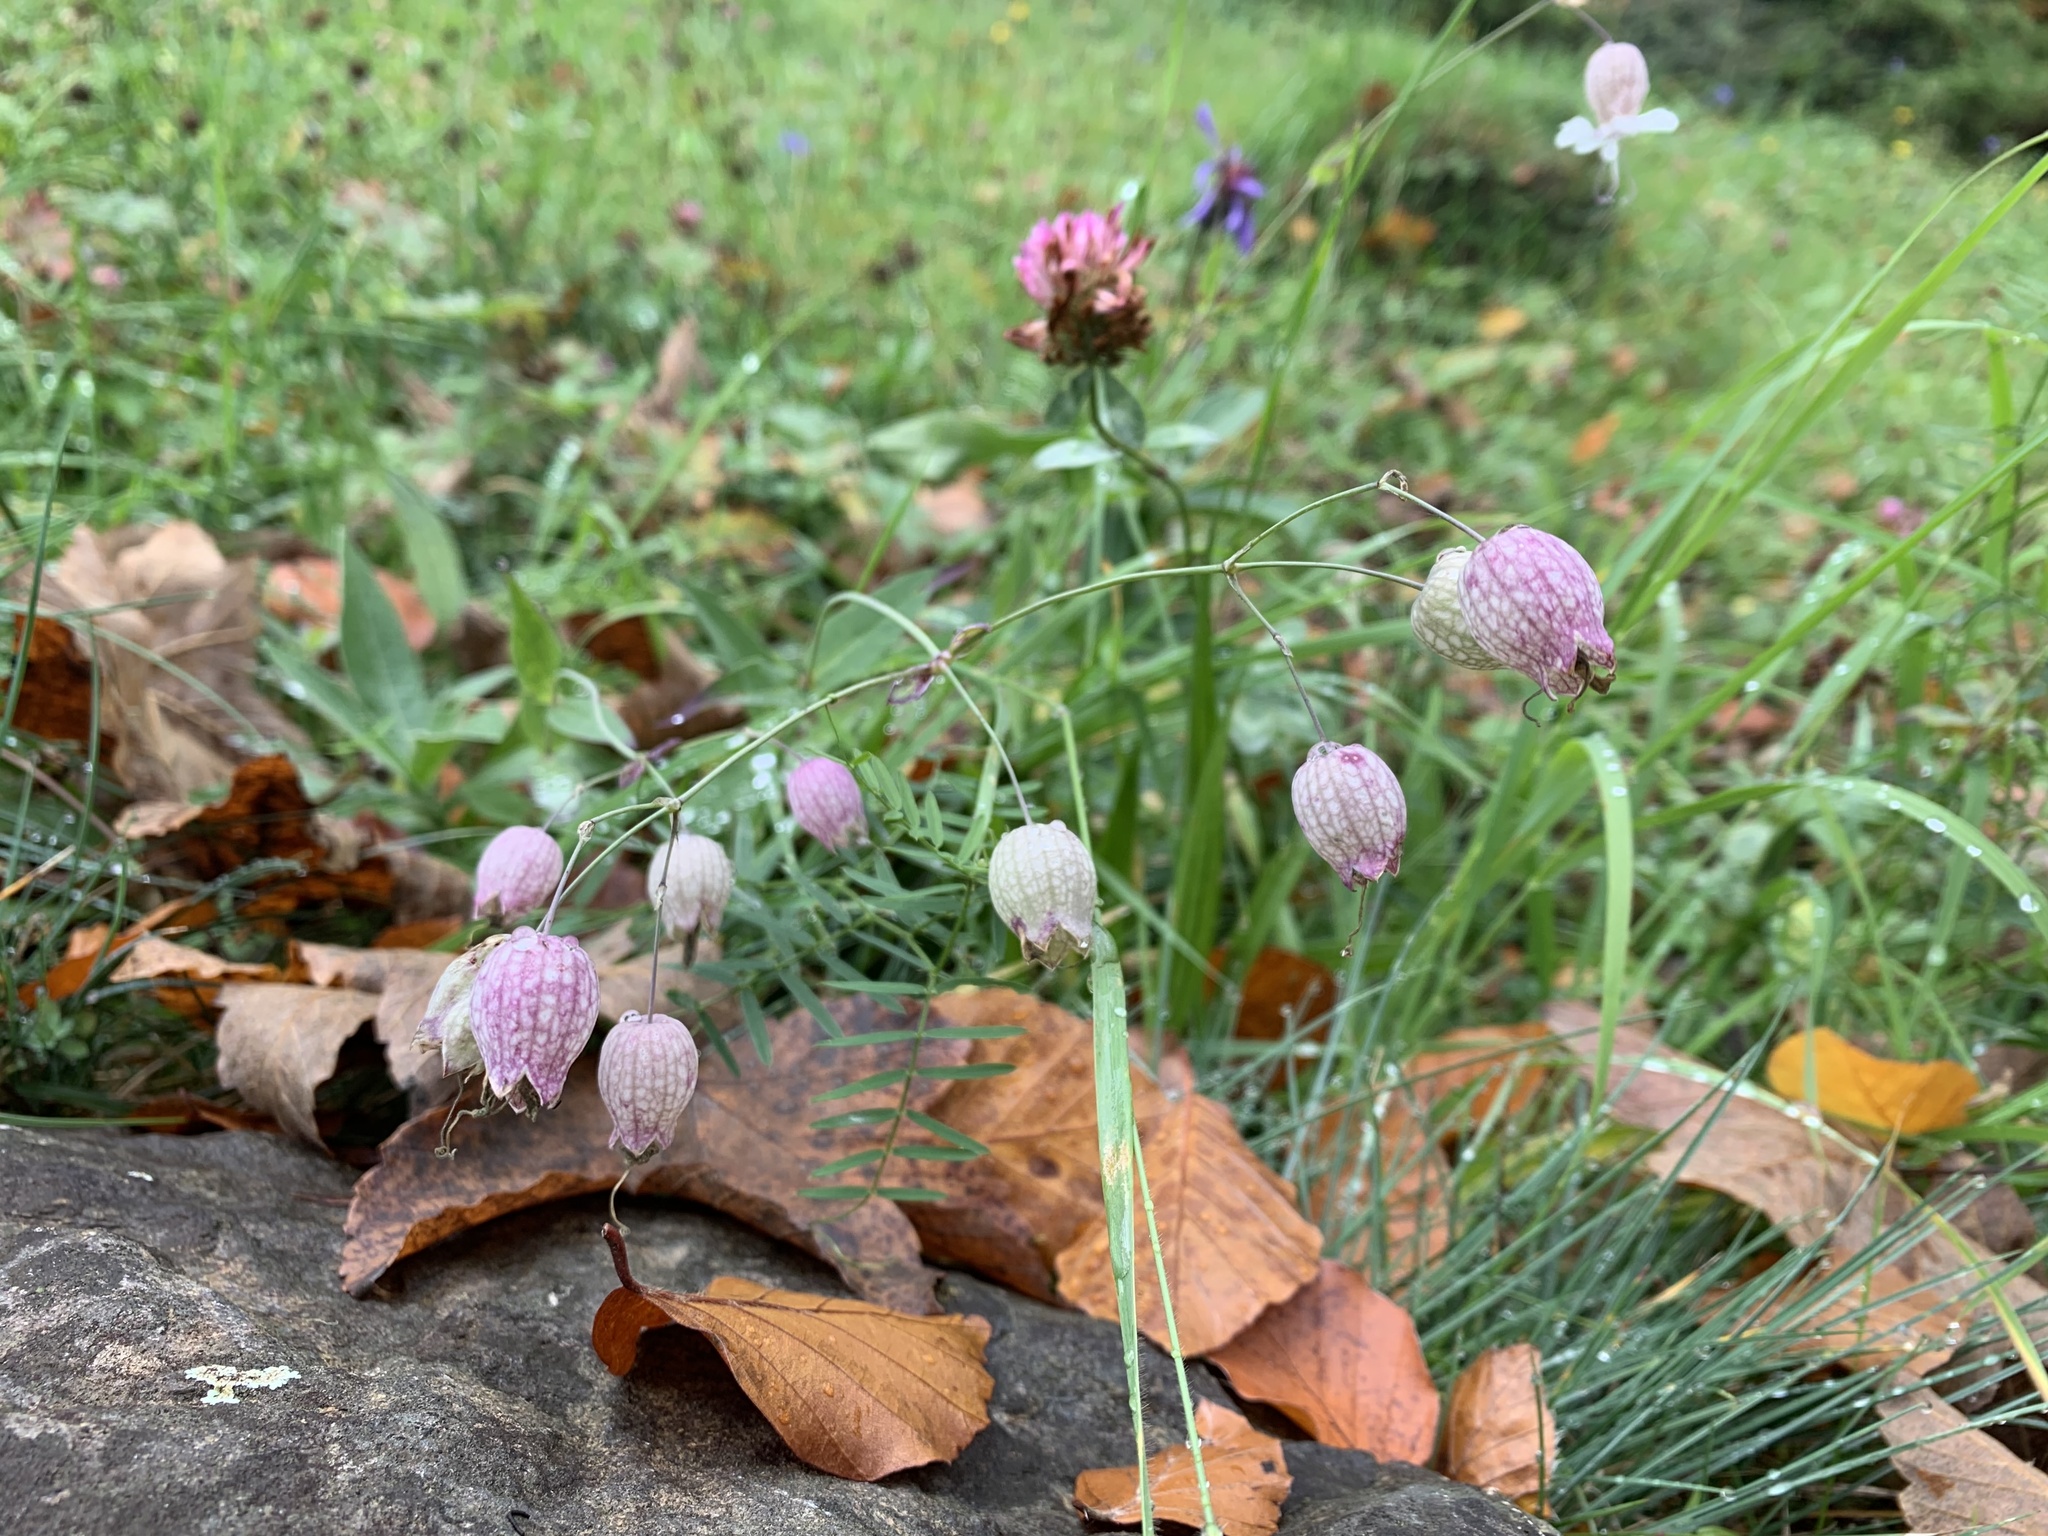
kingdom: Plantae
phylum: Tracheophyta
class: Magnoliopsida
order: Caryophyllales
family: Caryophyllaceae
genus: Silene
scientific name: Silene vulgaris
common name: Bladder campion
